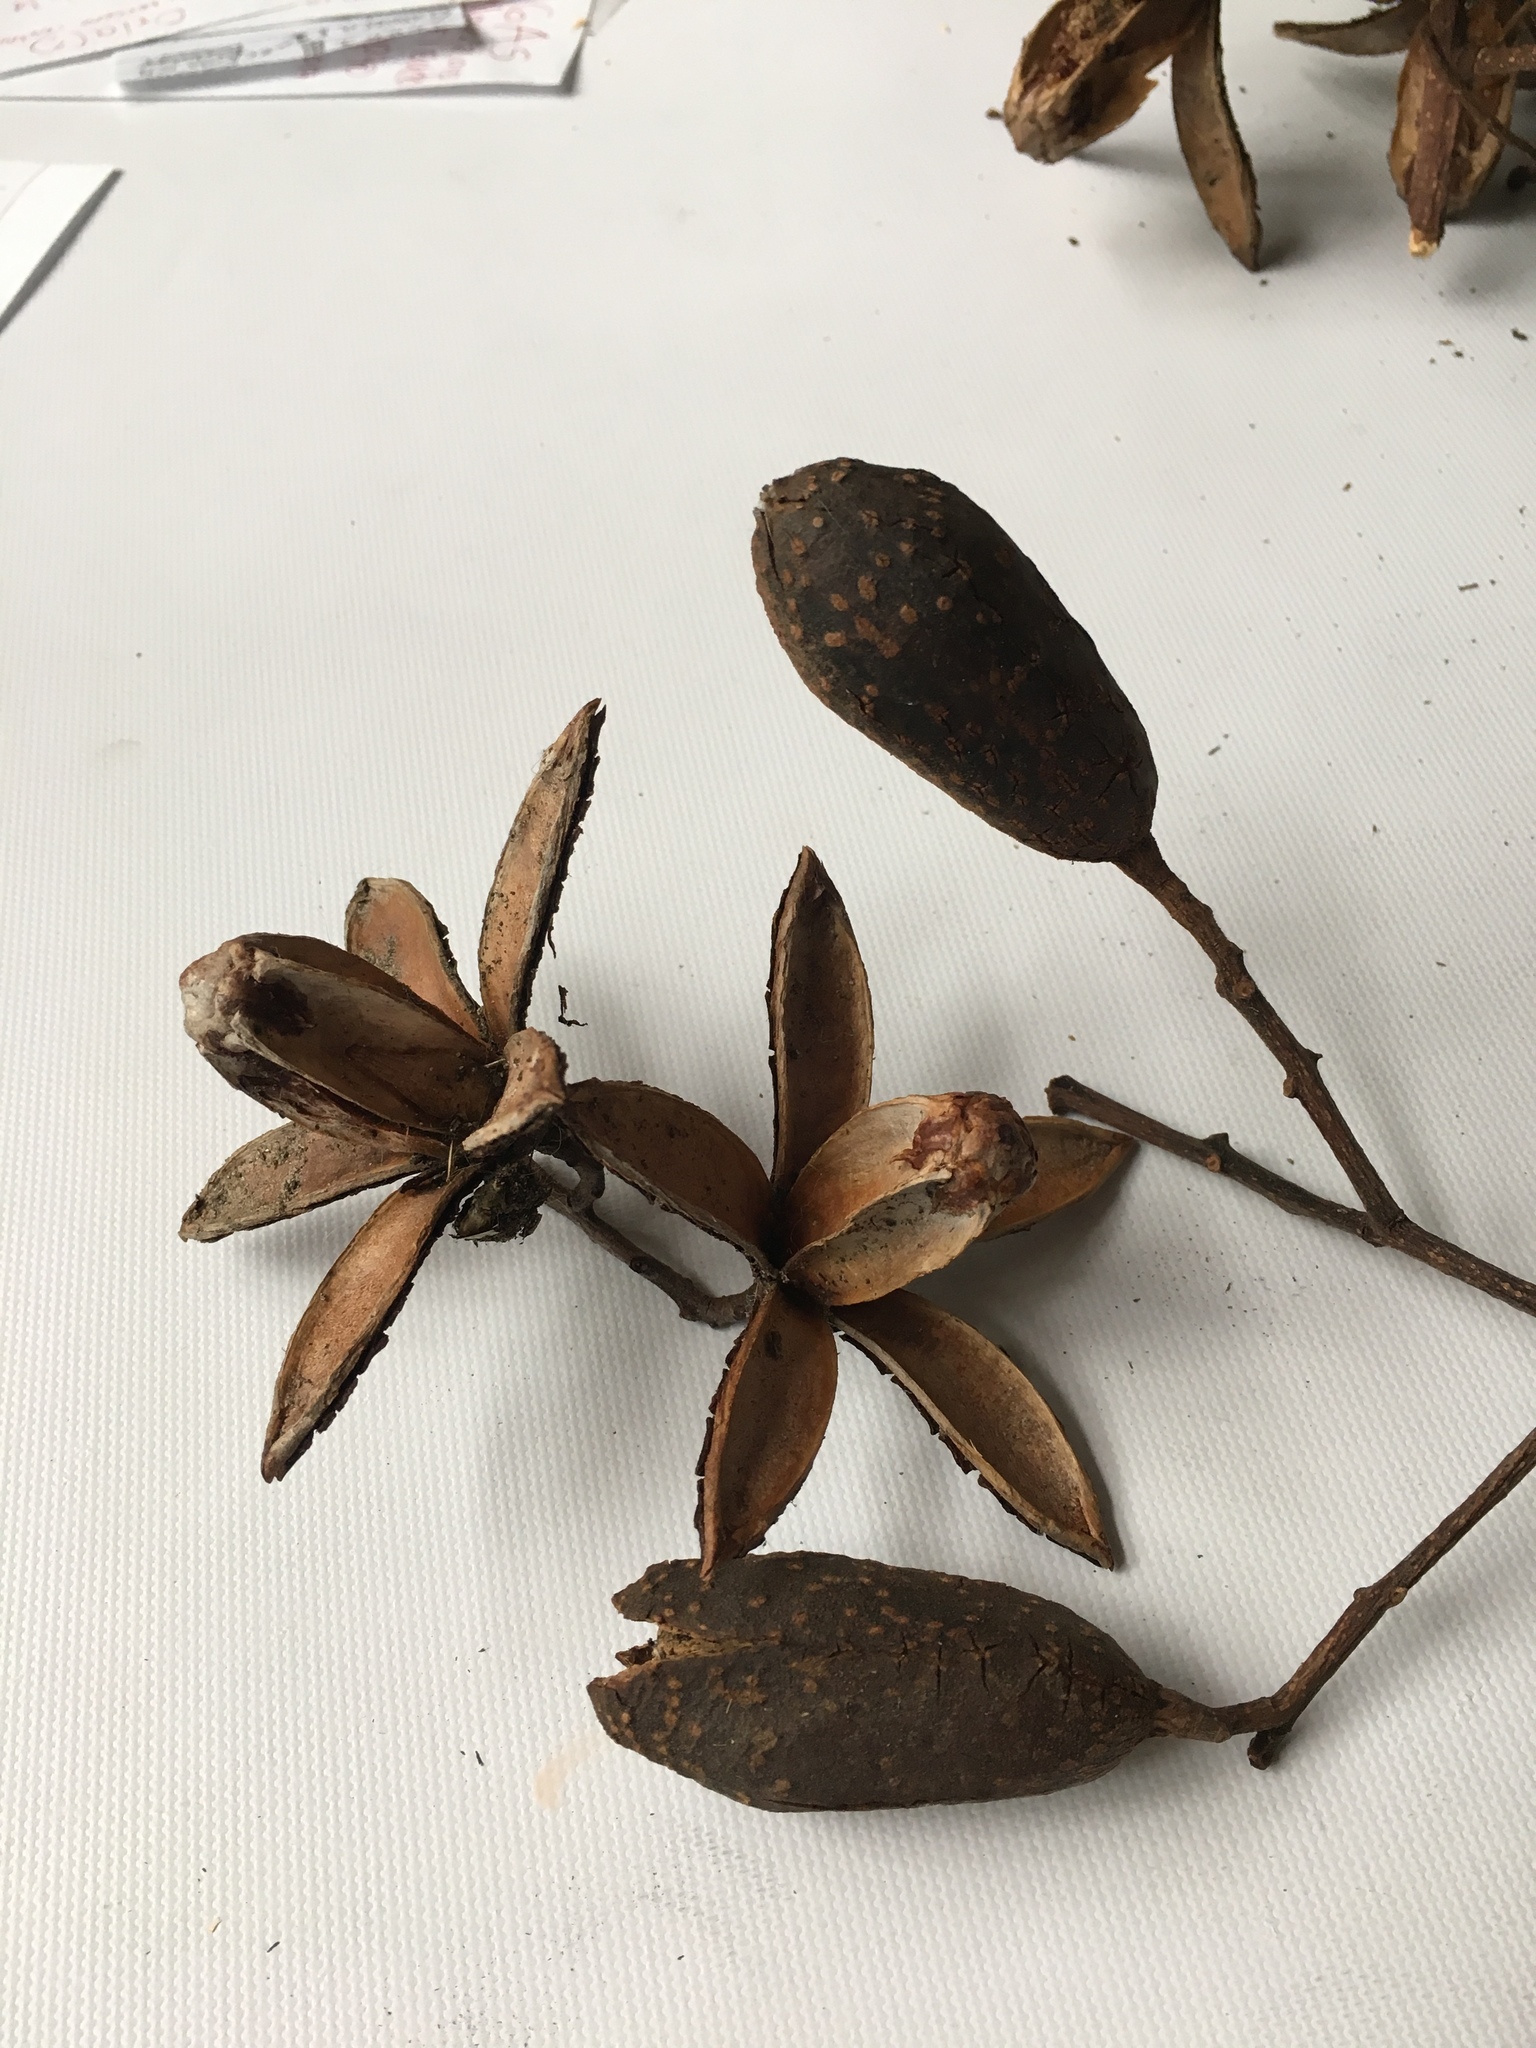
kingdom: Plantae
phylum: Tracheophyta
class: Magnoliopsida
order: Sapindales
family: Meliaceae
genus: Cedrela
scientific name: Cedrela montana
